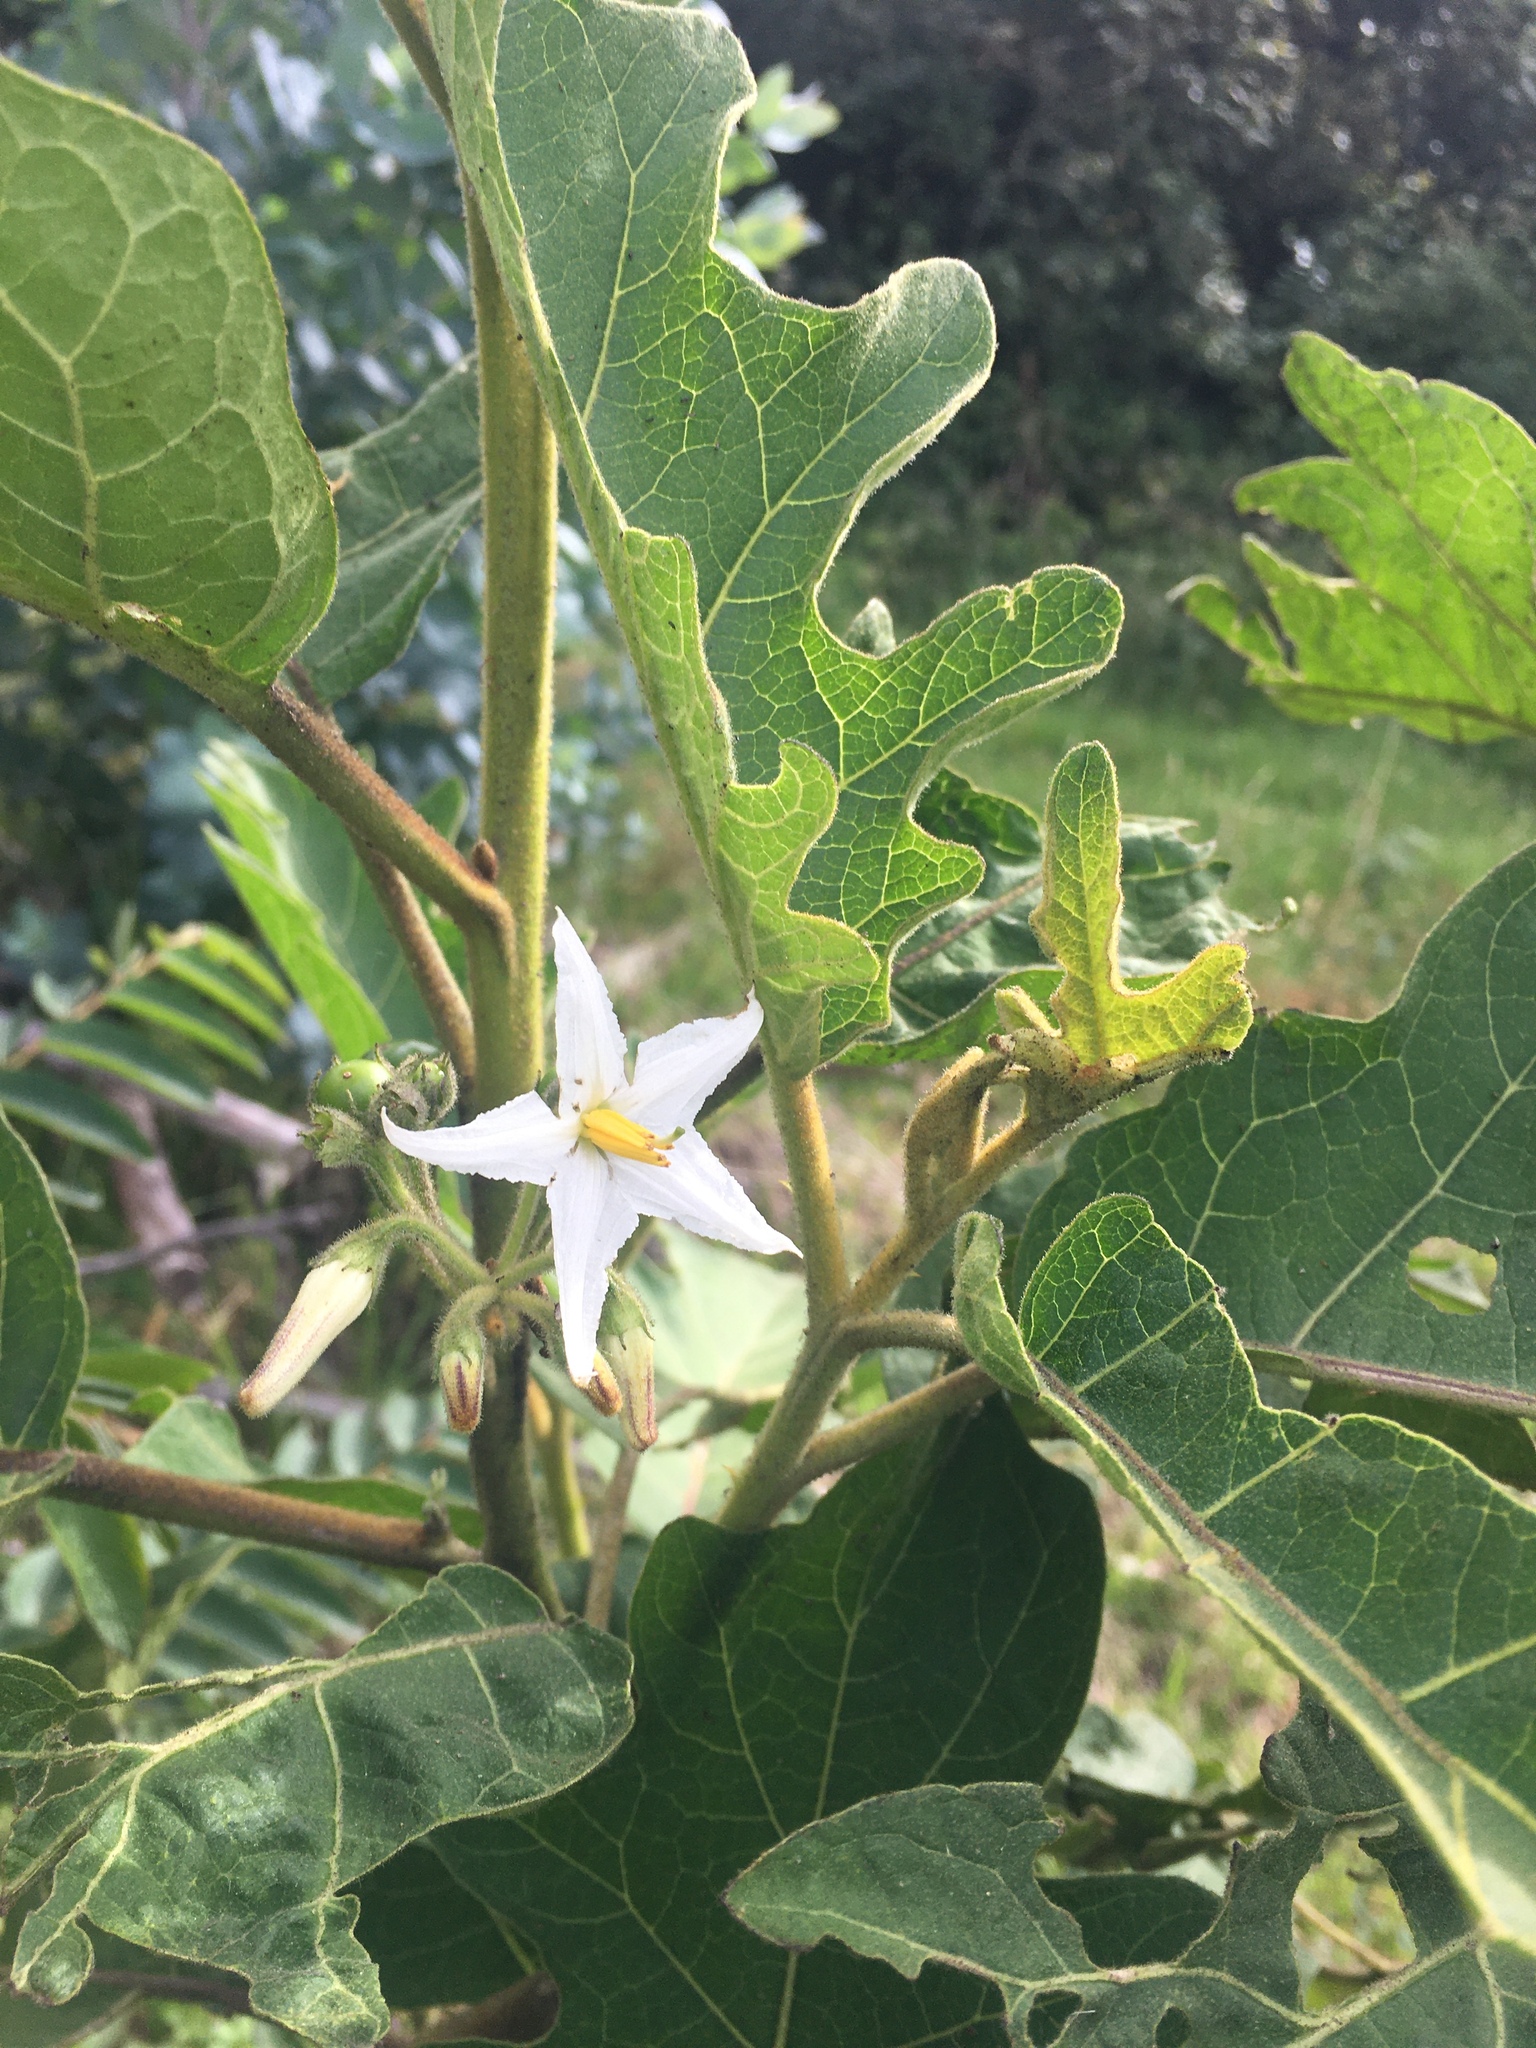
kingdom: Plantae
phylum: Tracheophyta
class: Magnoliopsida
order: Solanales
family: Solanaceae
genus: Solanum
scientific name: Solanum stellatiglandulosum
